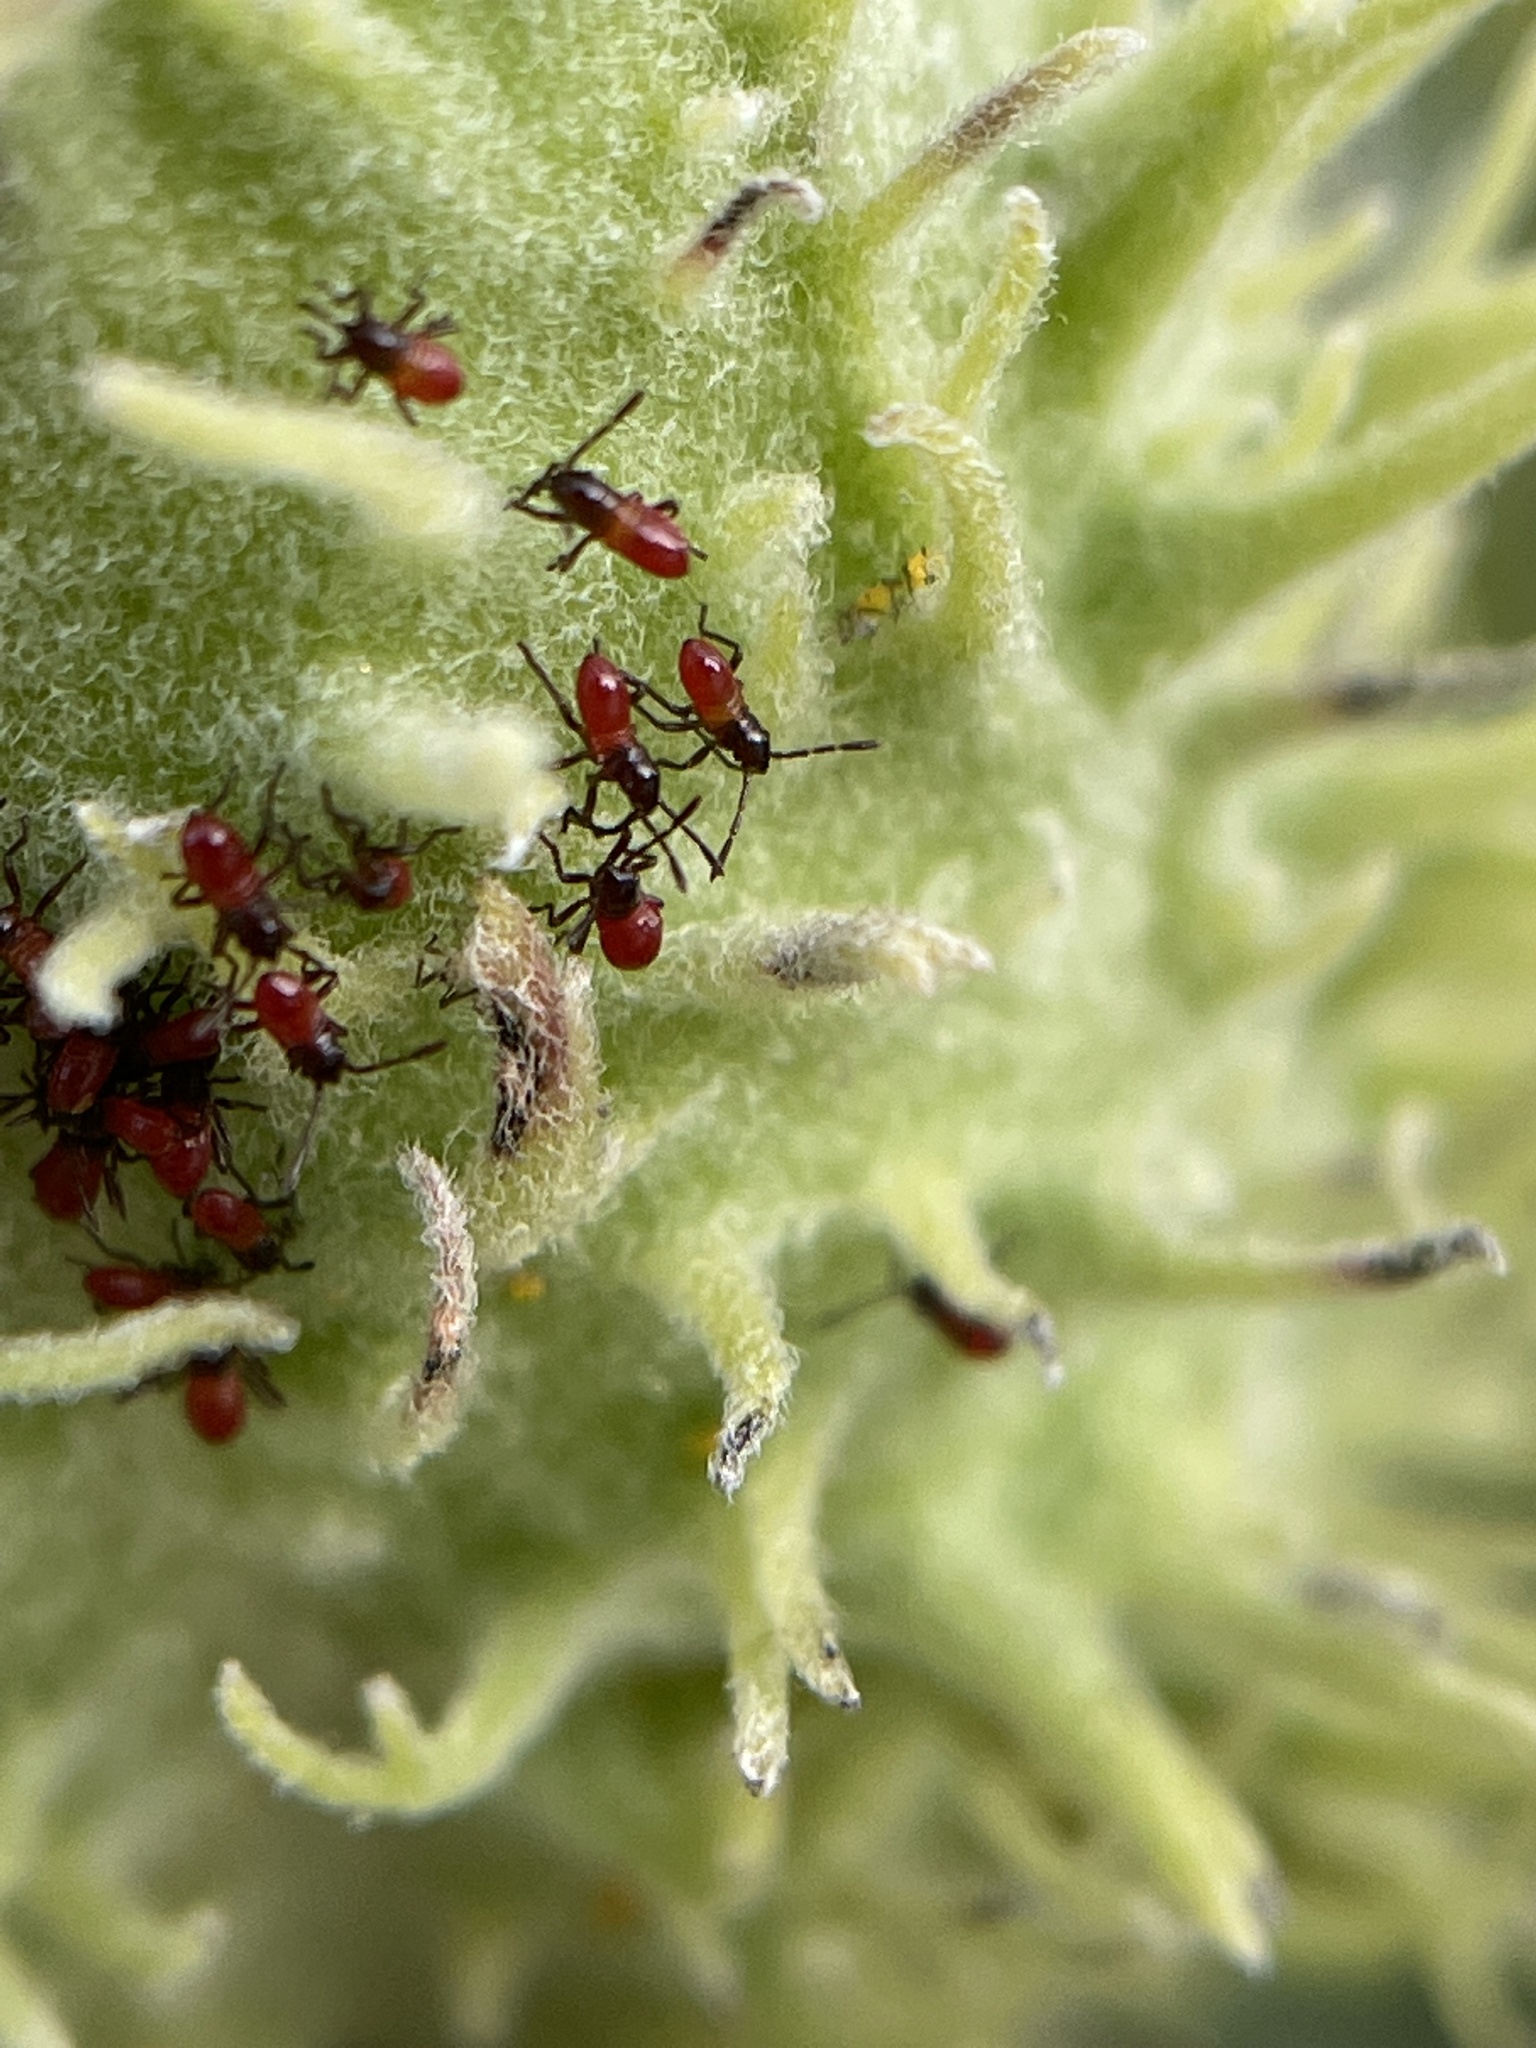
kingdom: Animalia
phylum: Arthropoda
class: Insecta
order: Hemiptera
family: Lygaeidae
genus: Oncopeltus
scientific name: Oncopeltus fasciatus
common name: Large milkweed bug
